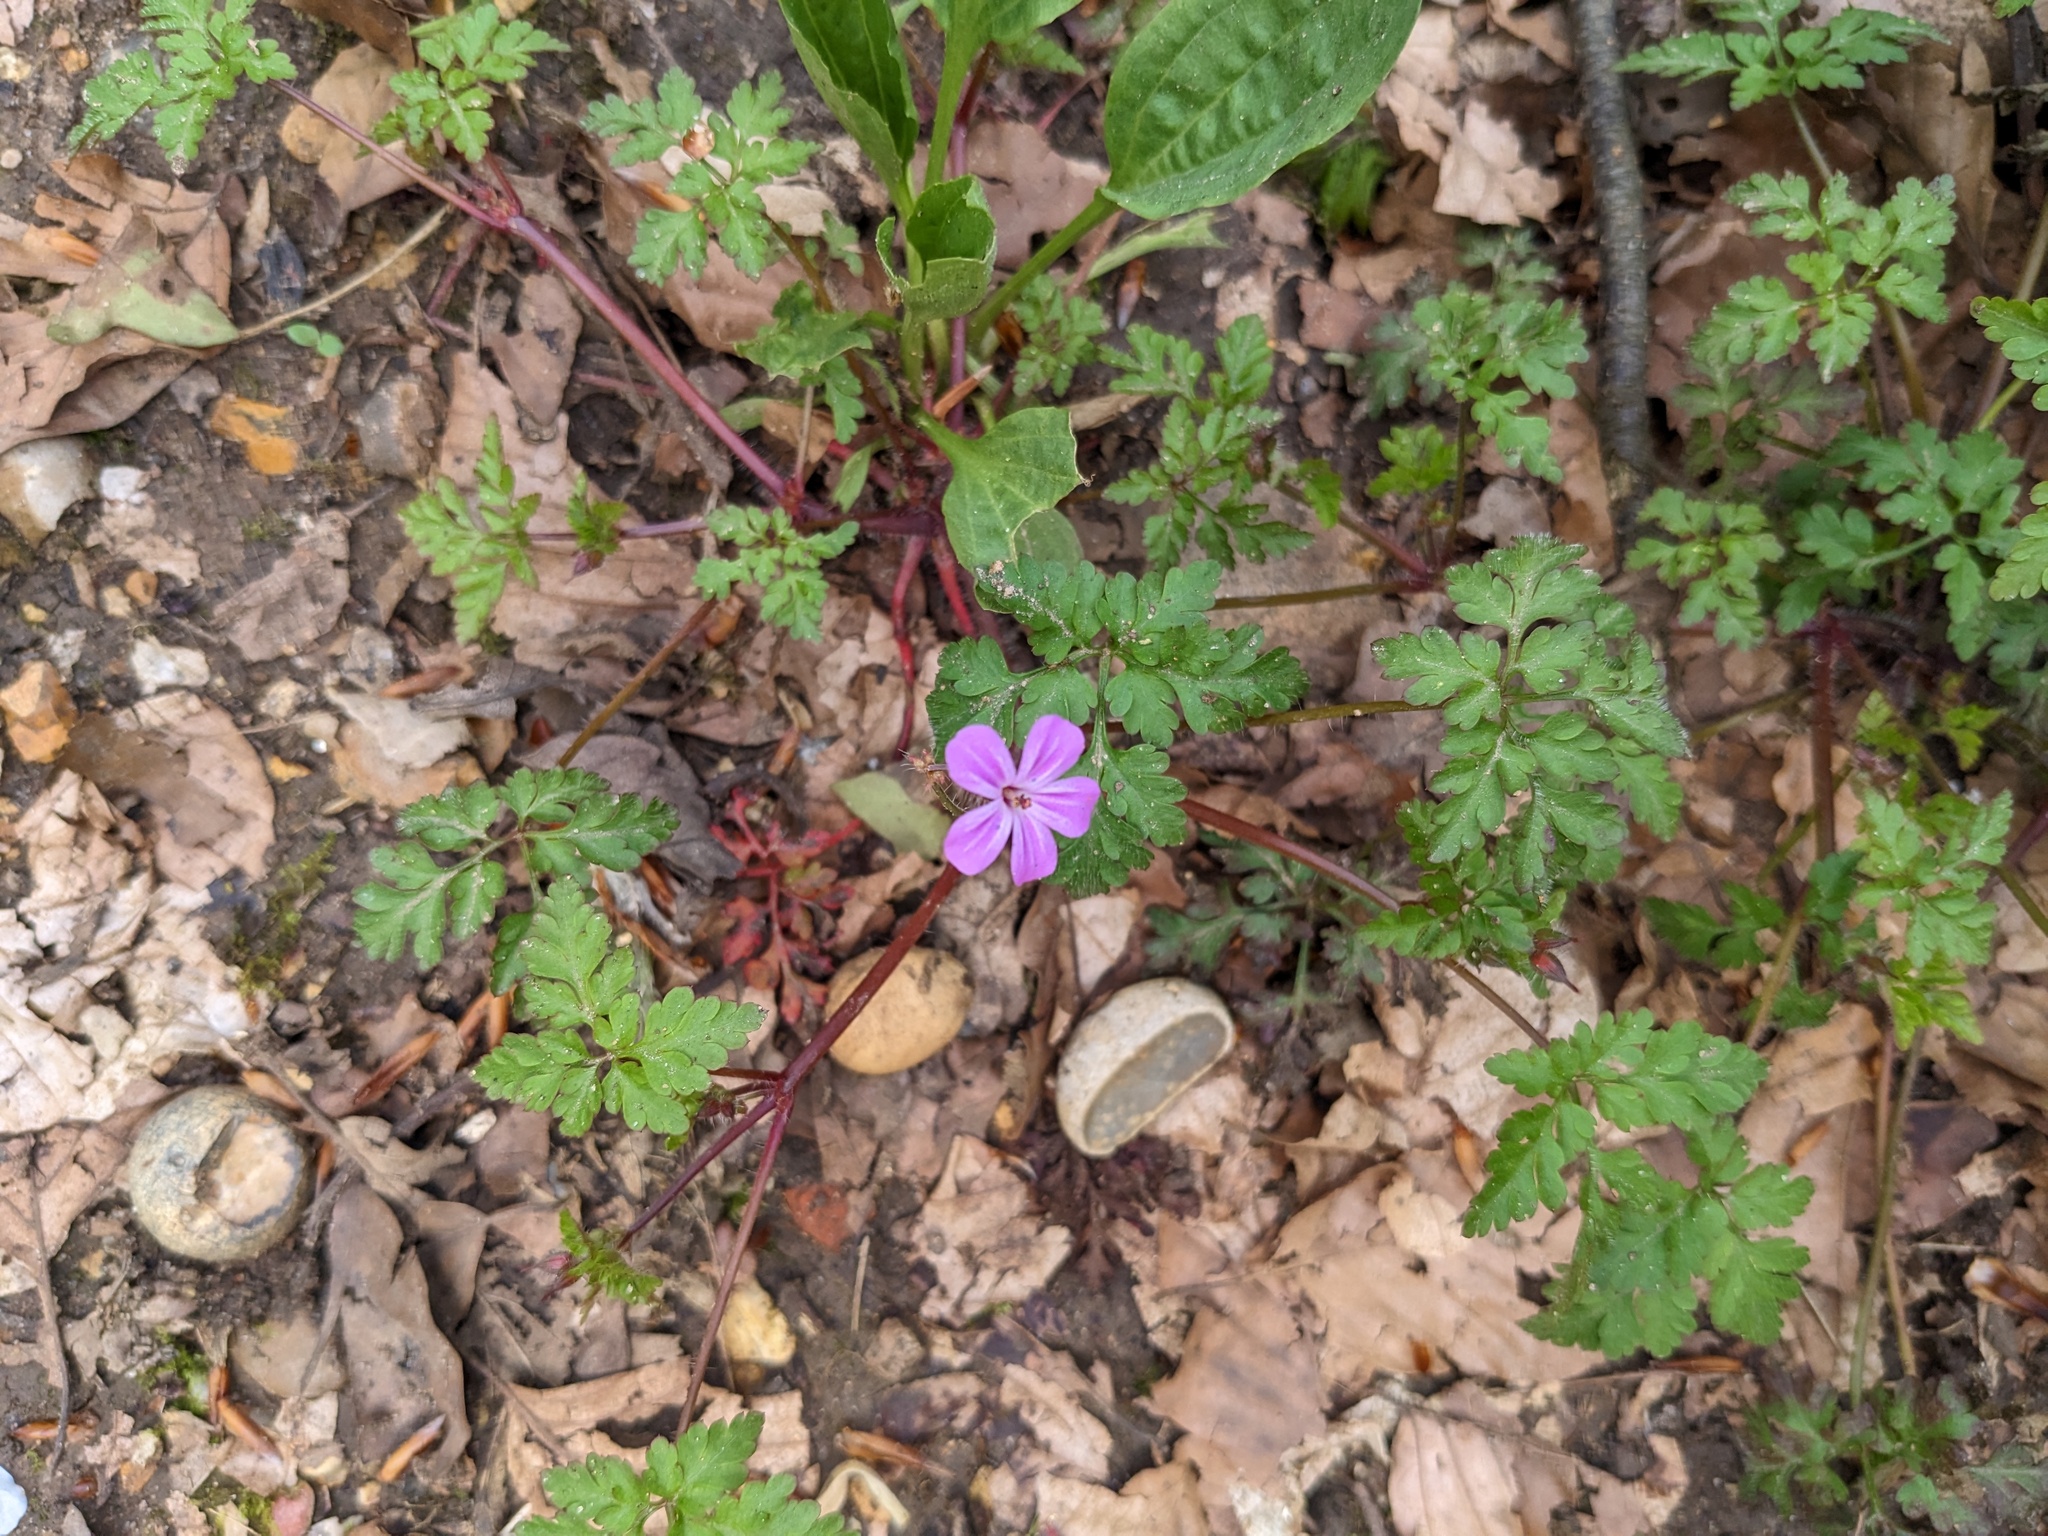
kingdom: Plantae
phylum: Tracheophyta
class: Magnoliopsida
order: Geraniales
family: Geraniaceae
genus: Geranium
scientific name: Geranium robertianum
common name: Herb-robert
